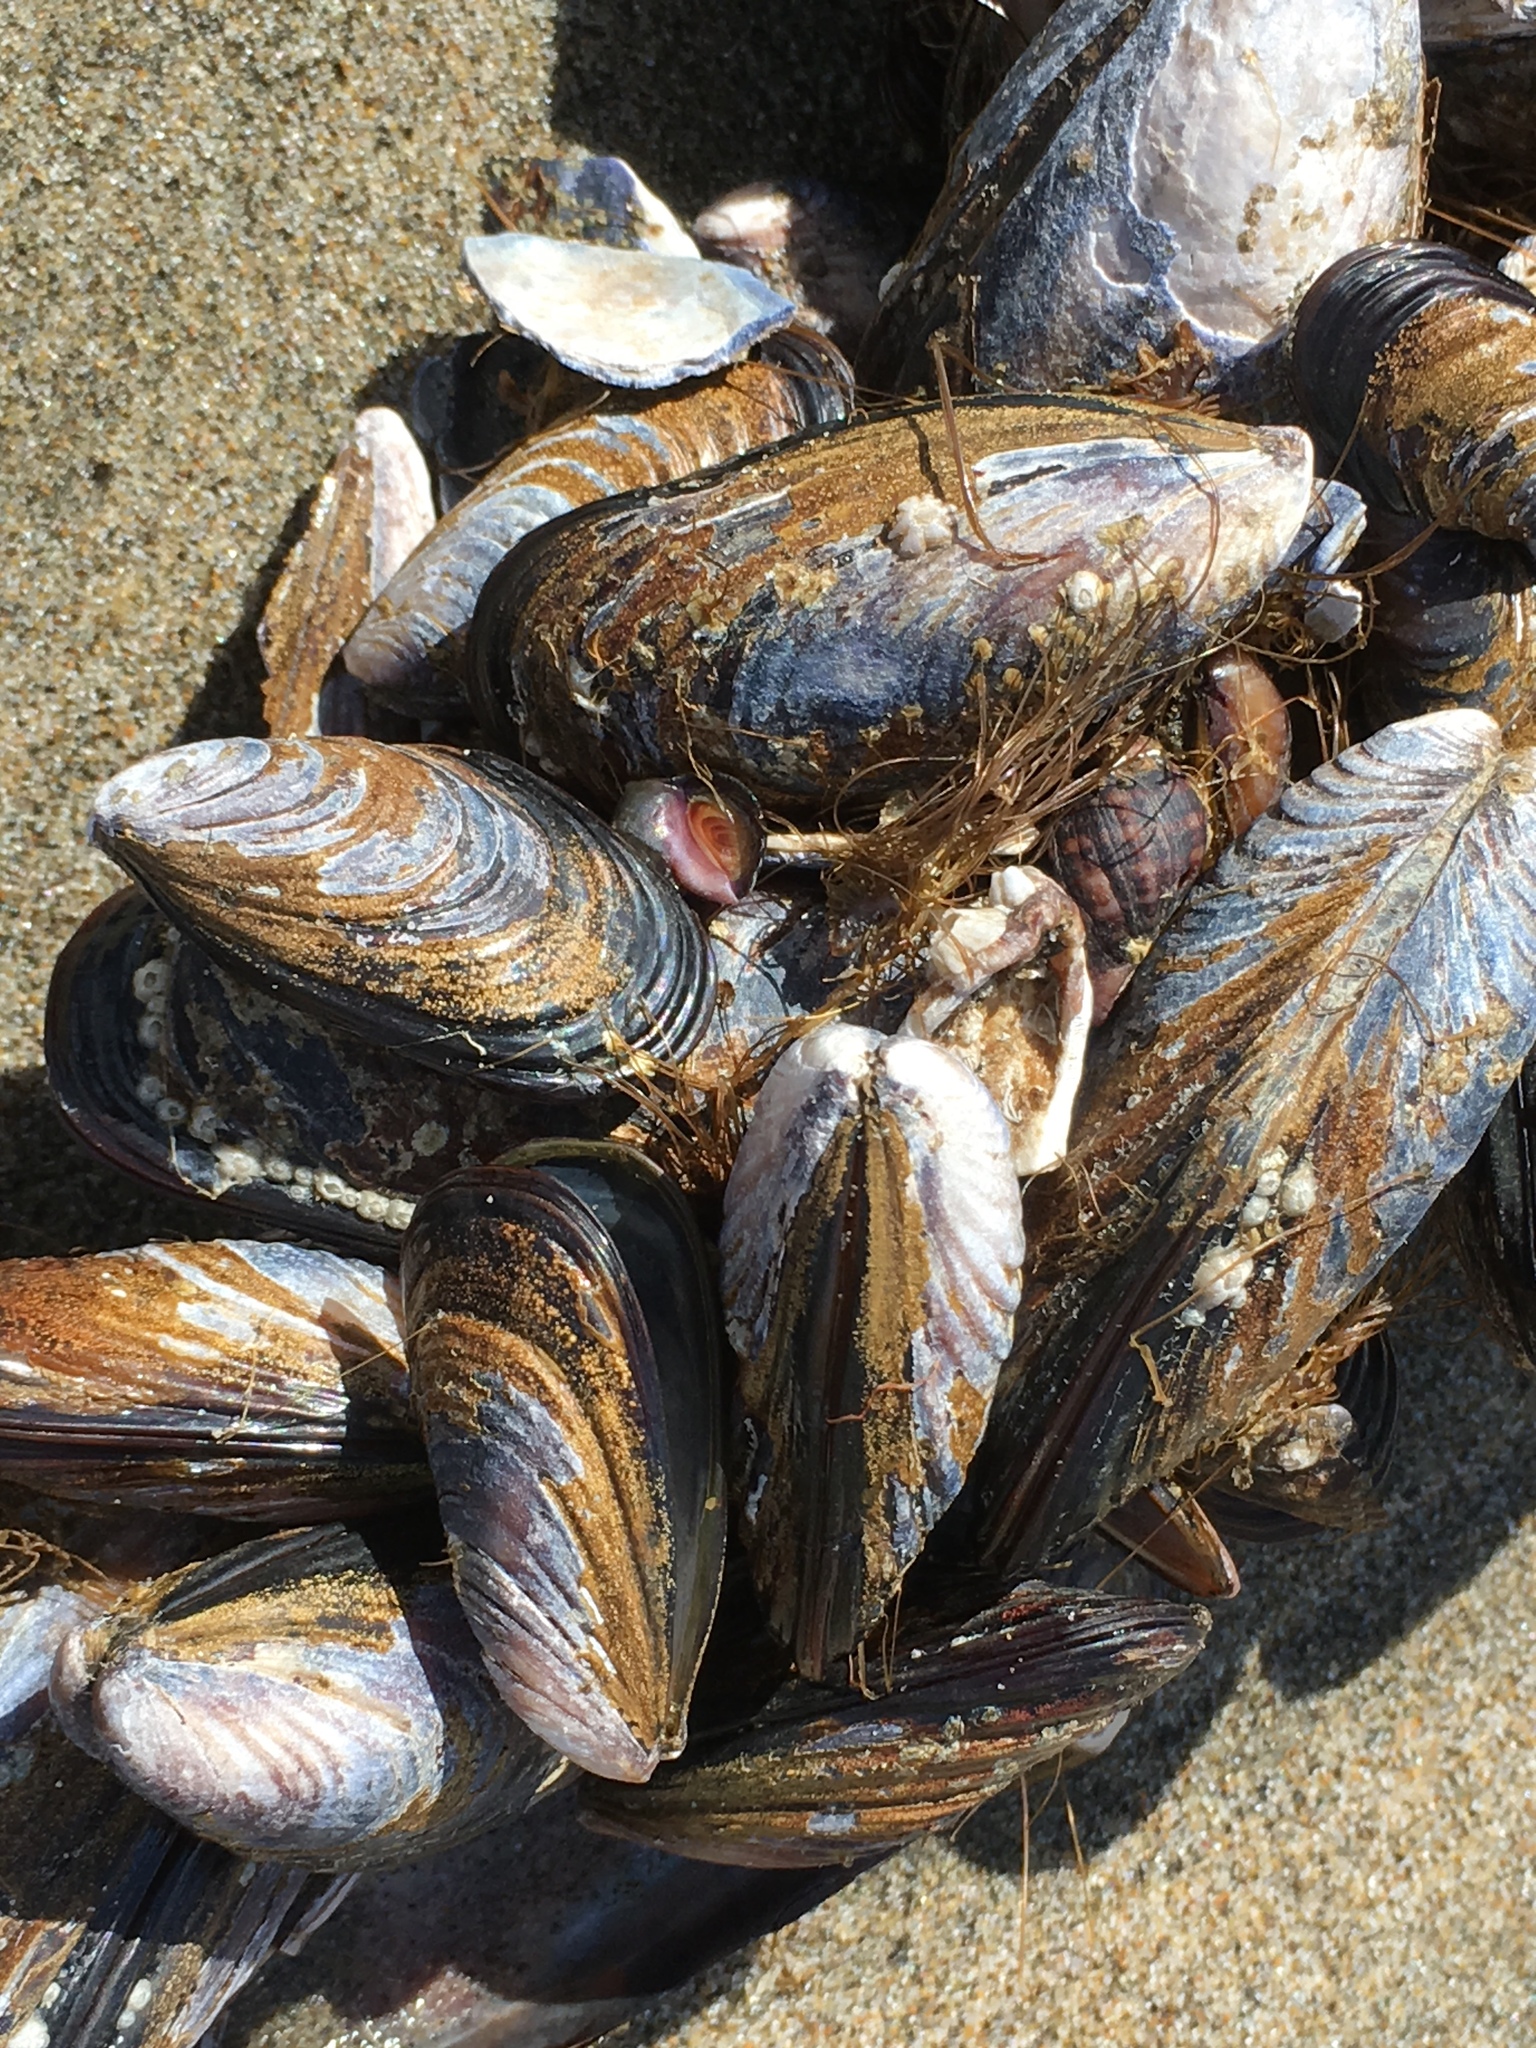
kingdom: Animalia
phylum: Mollusca
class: Bivalvia
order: Mytilida
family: Mytilidae
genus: Mytilus
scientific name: Mytilus californianus
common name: California mussel
